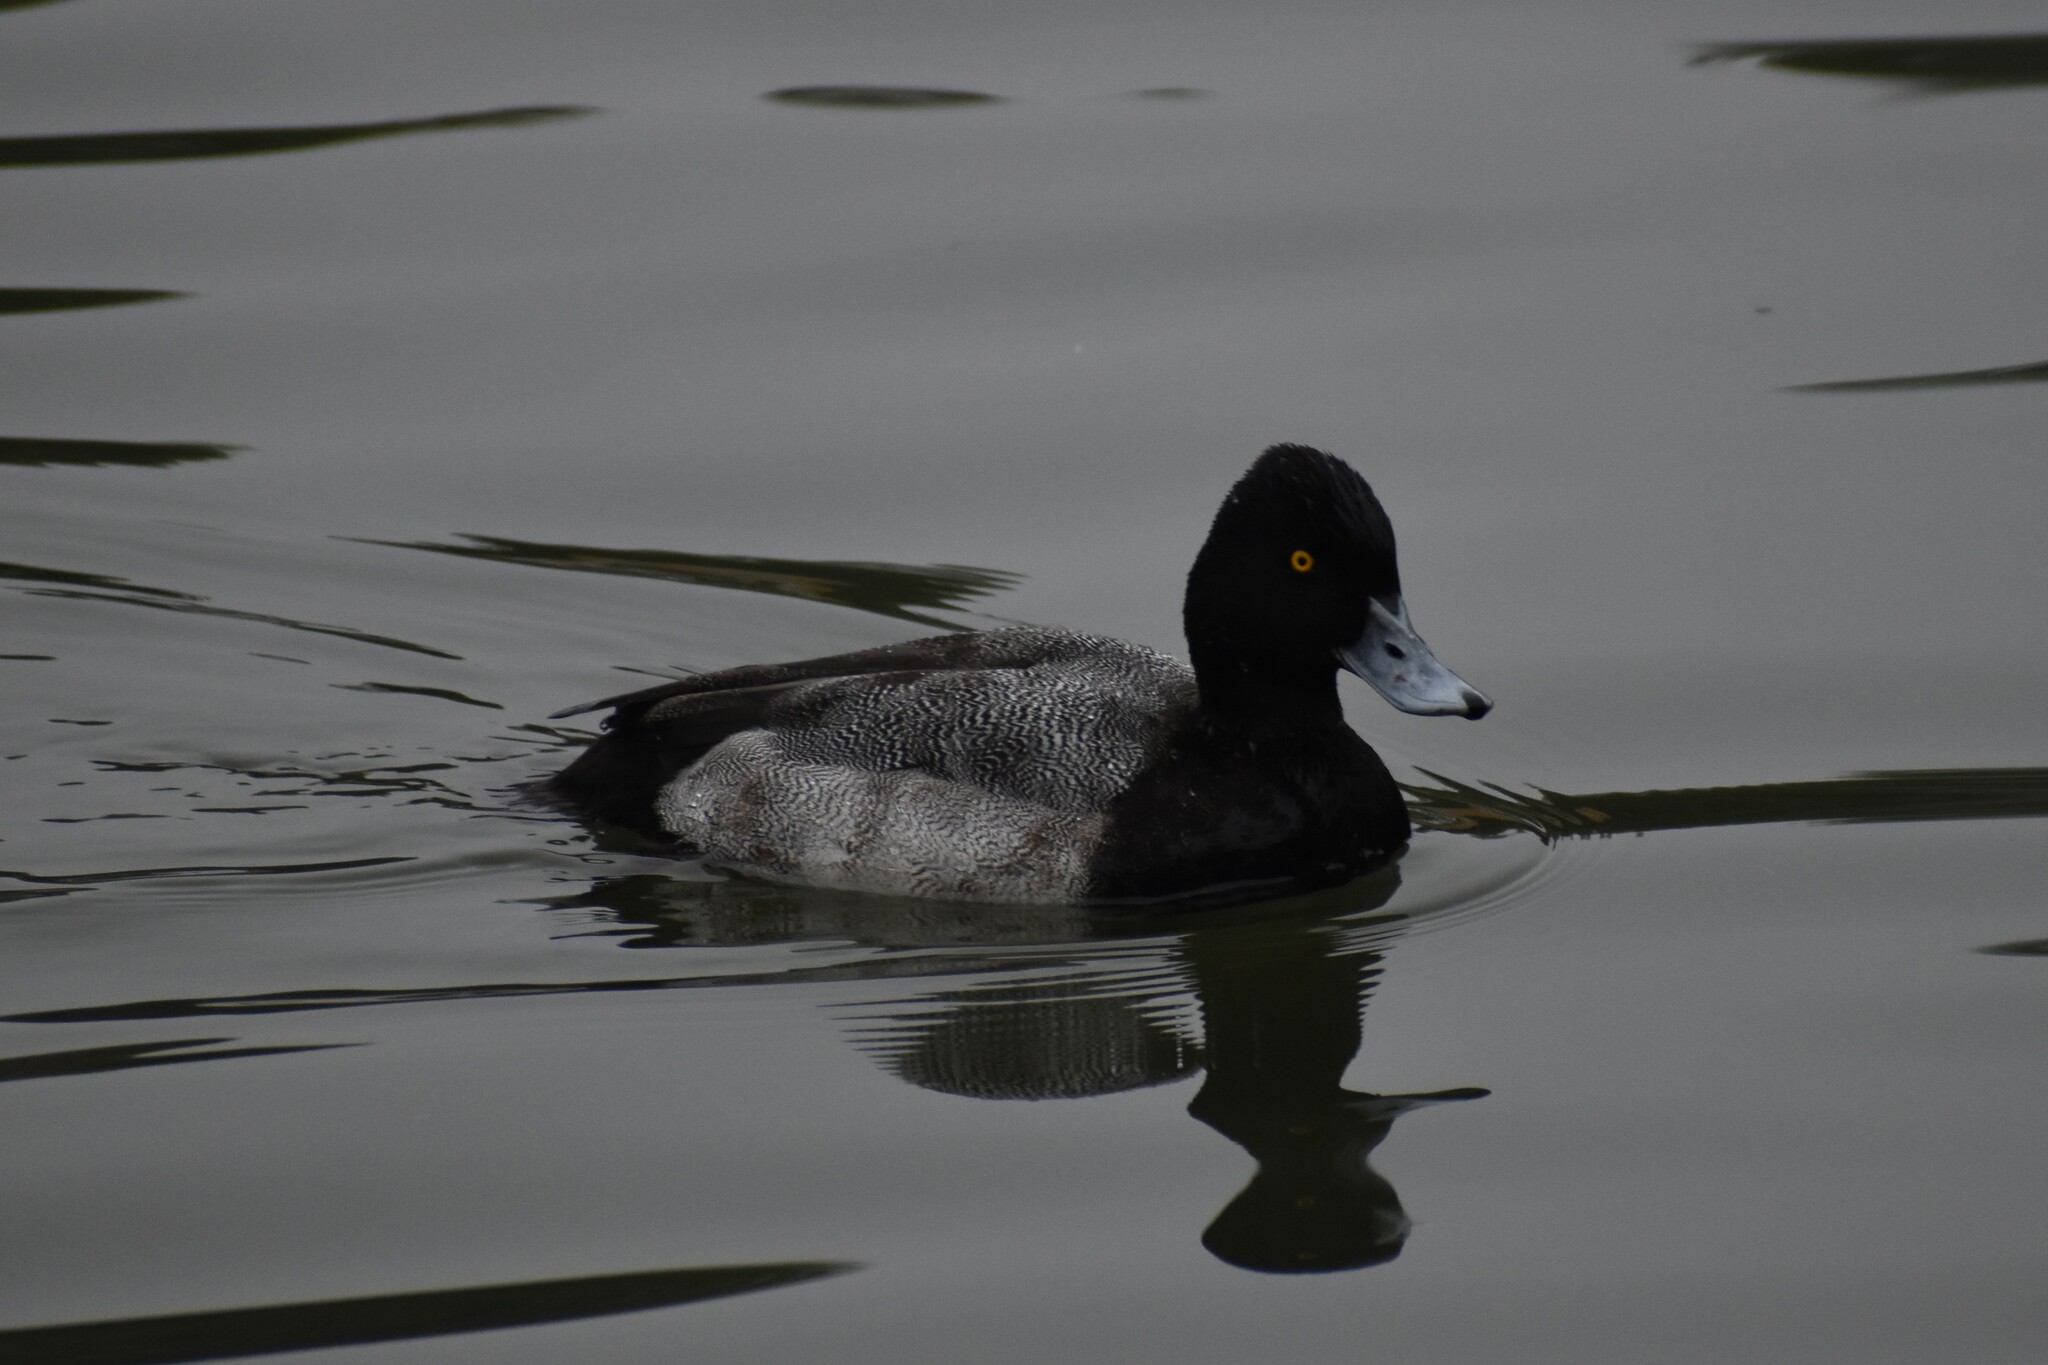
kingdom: Animalia
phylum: Chordata
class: Aves
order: Anseriformes
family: Anatidae
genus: Aythya
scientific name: Aythya affinis
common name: Lesser scaup
